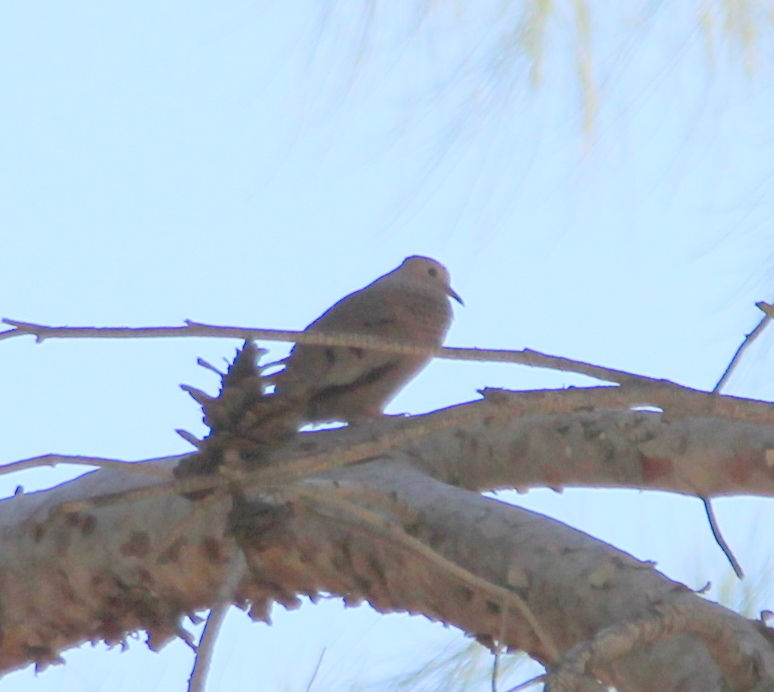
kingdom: Animalia
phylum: Chordata
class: Aves
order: Columbiformes
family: Columbidae
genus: Columbina
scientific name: Columbina passerina
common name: Common ground-dove
